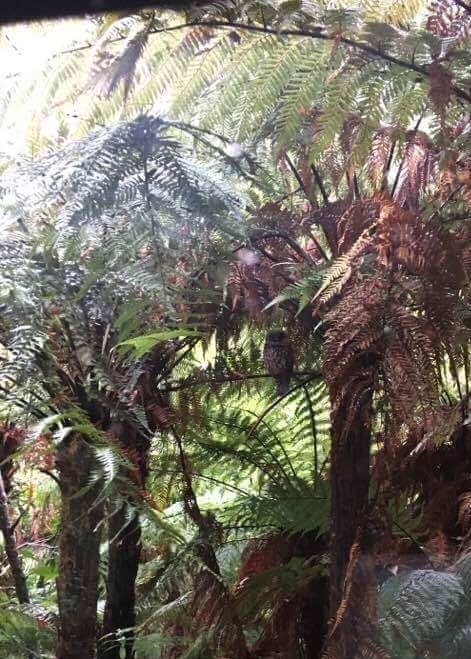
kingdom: Animalia
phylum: Chordata
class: Aves
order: Strigiformes
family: Strigidae
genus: Ninox
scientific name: Ninox novaeseelandiae
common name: Morepork
